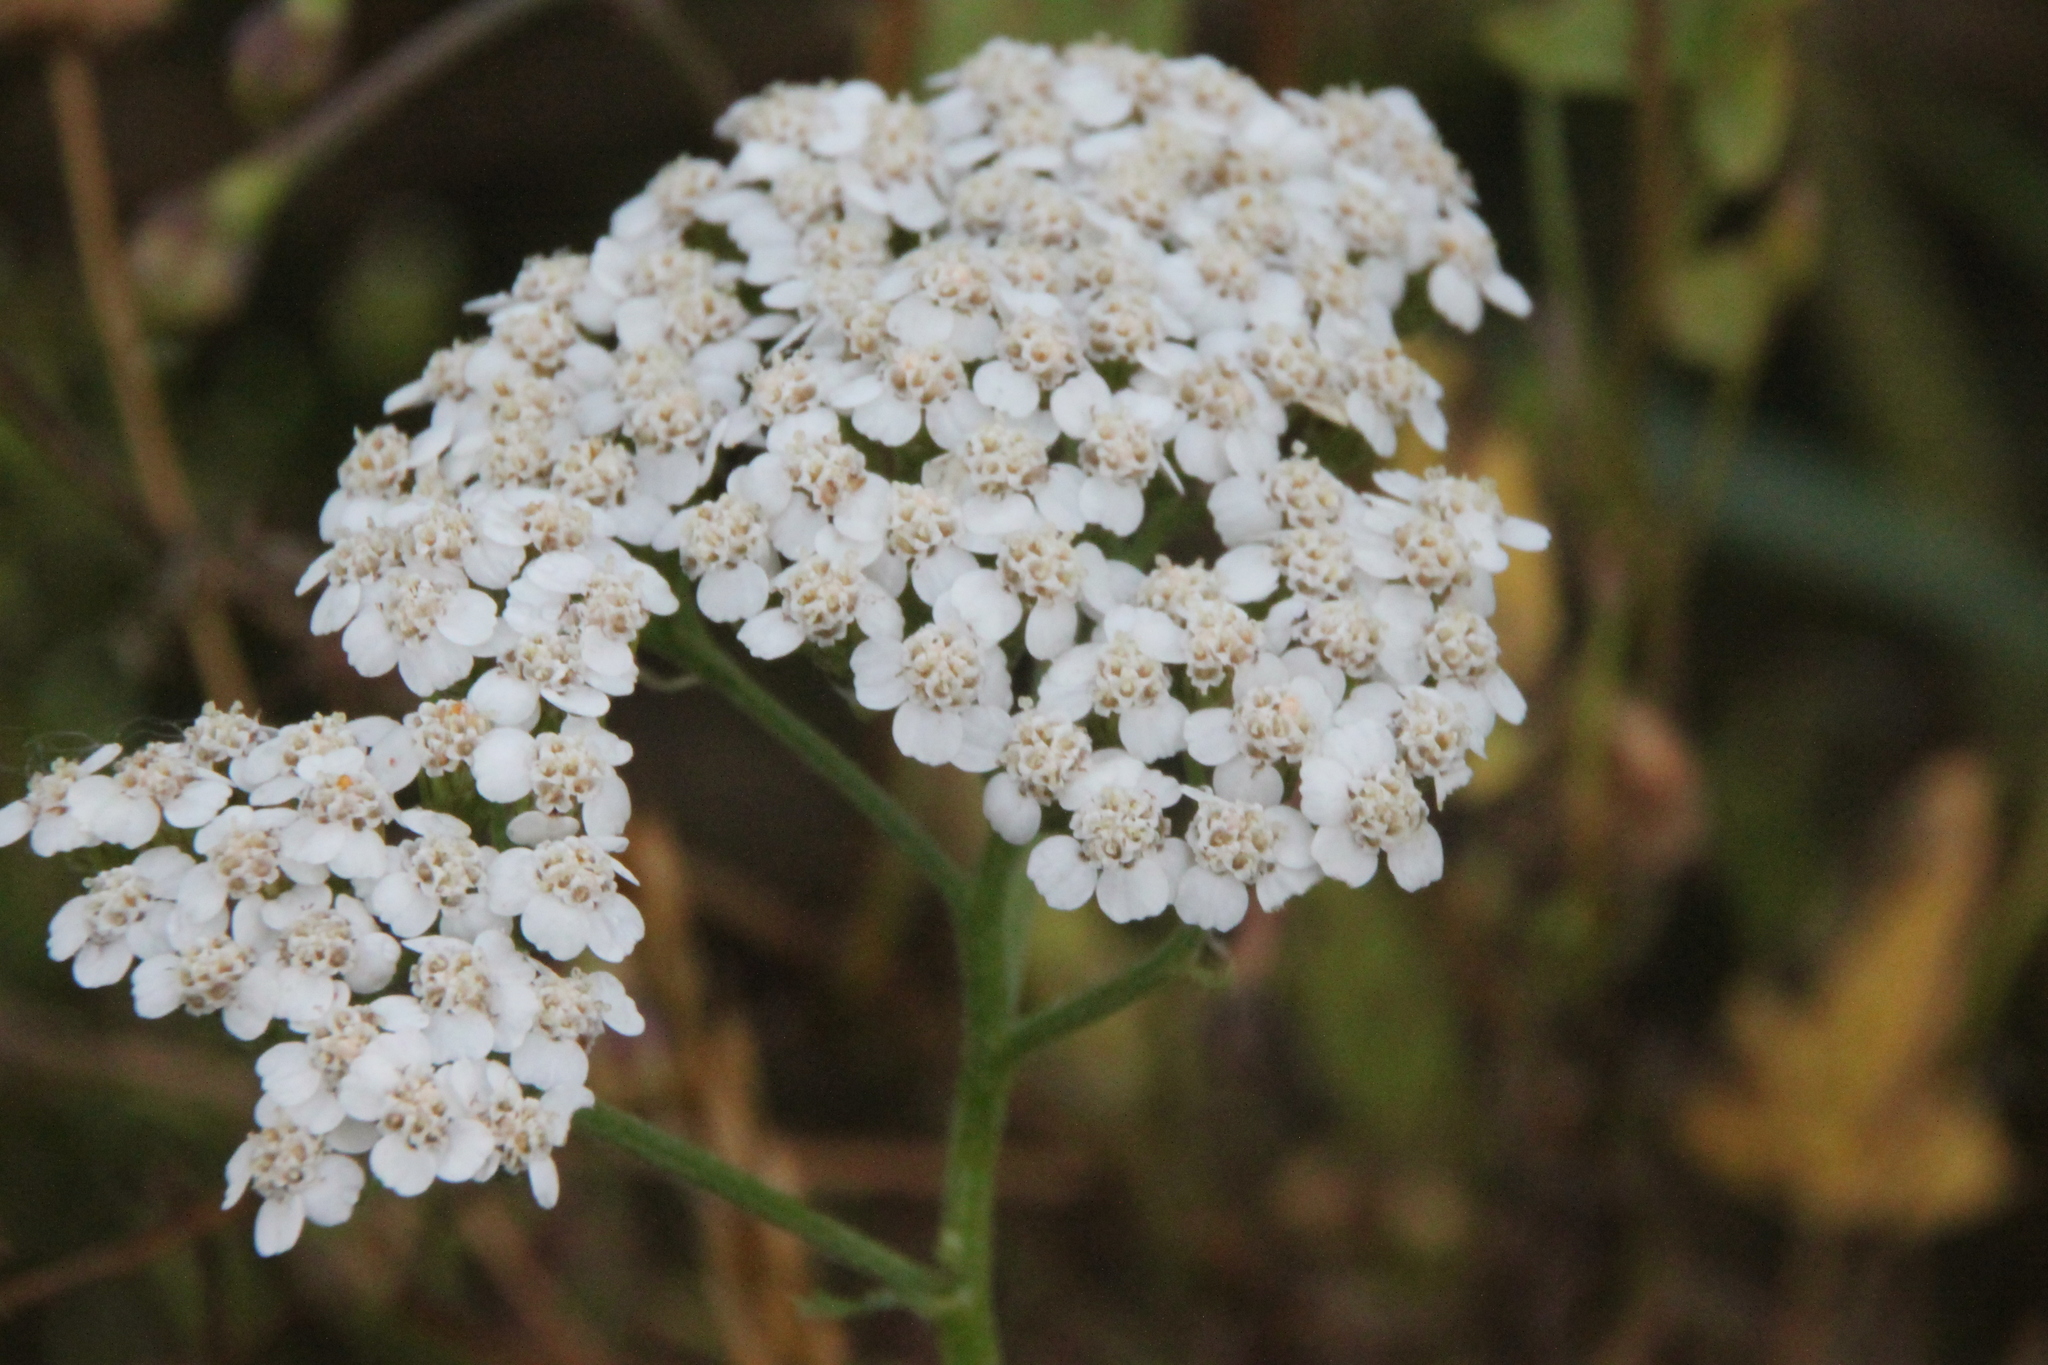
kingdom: Plantae
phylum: Tracheophyta
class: Magnoliopsida
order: Asterales
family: Asteraceae
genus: Achillea
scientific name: Achillea millefolium
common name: Yarrow
